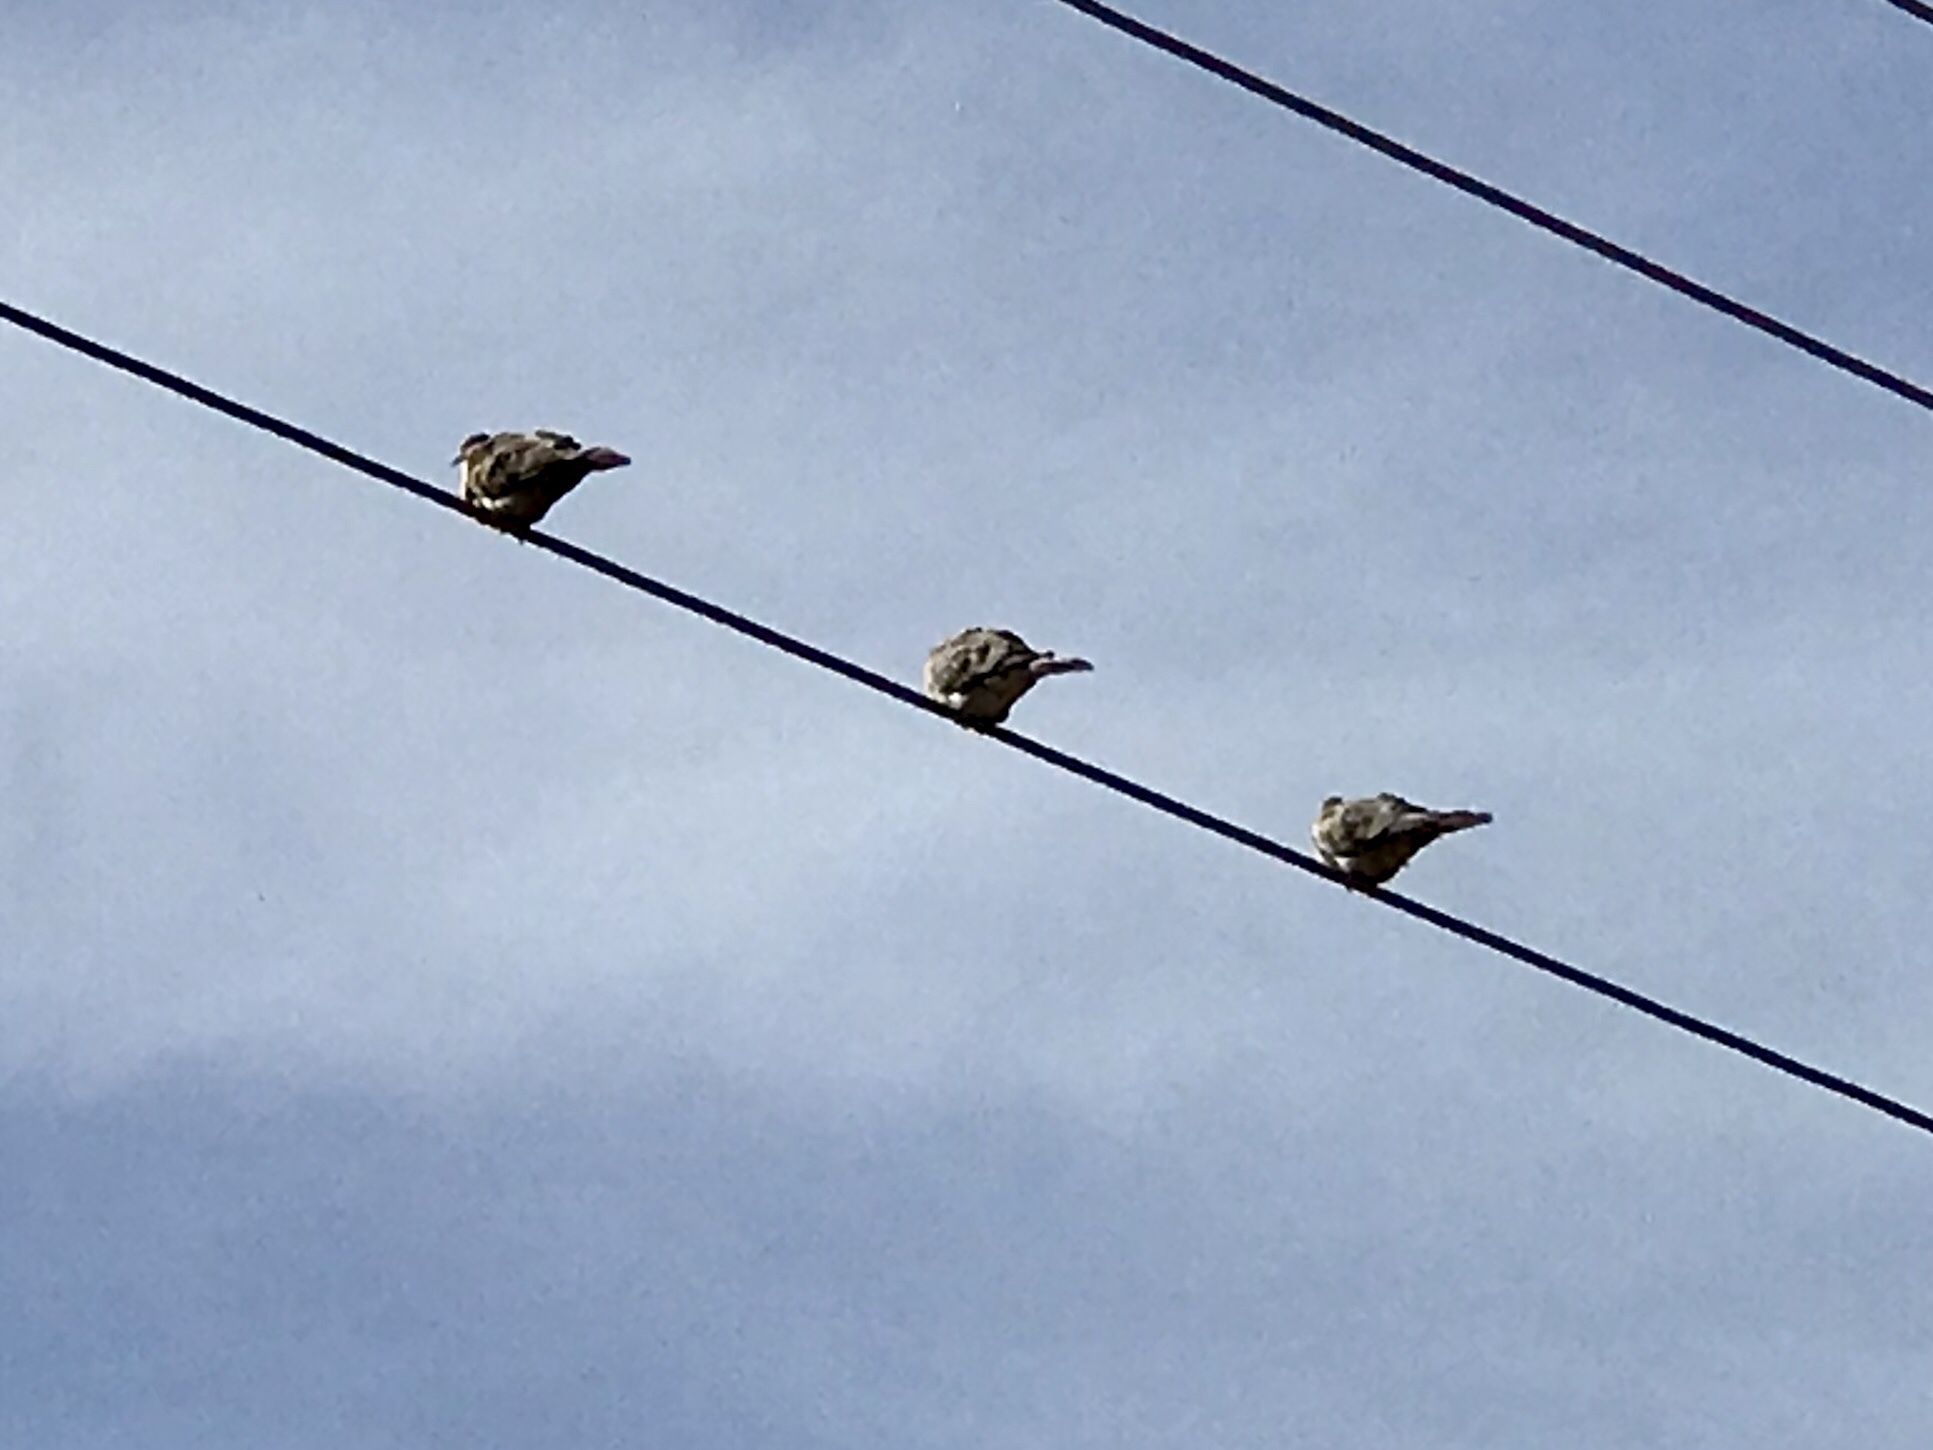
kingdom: Animalia
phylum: Chordata
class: Aves
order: Columbiformes
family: Columbidae
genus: Zenaida
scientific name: Zenaida macroura
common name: Mourning dove
